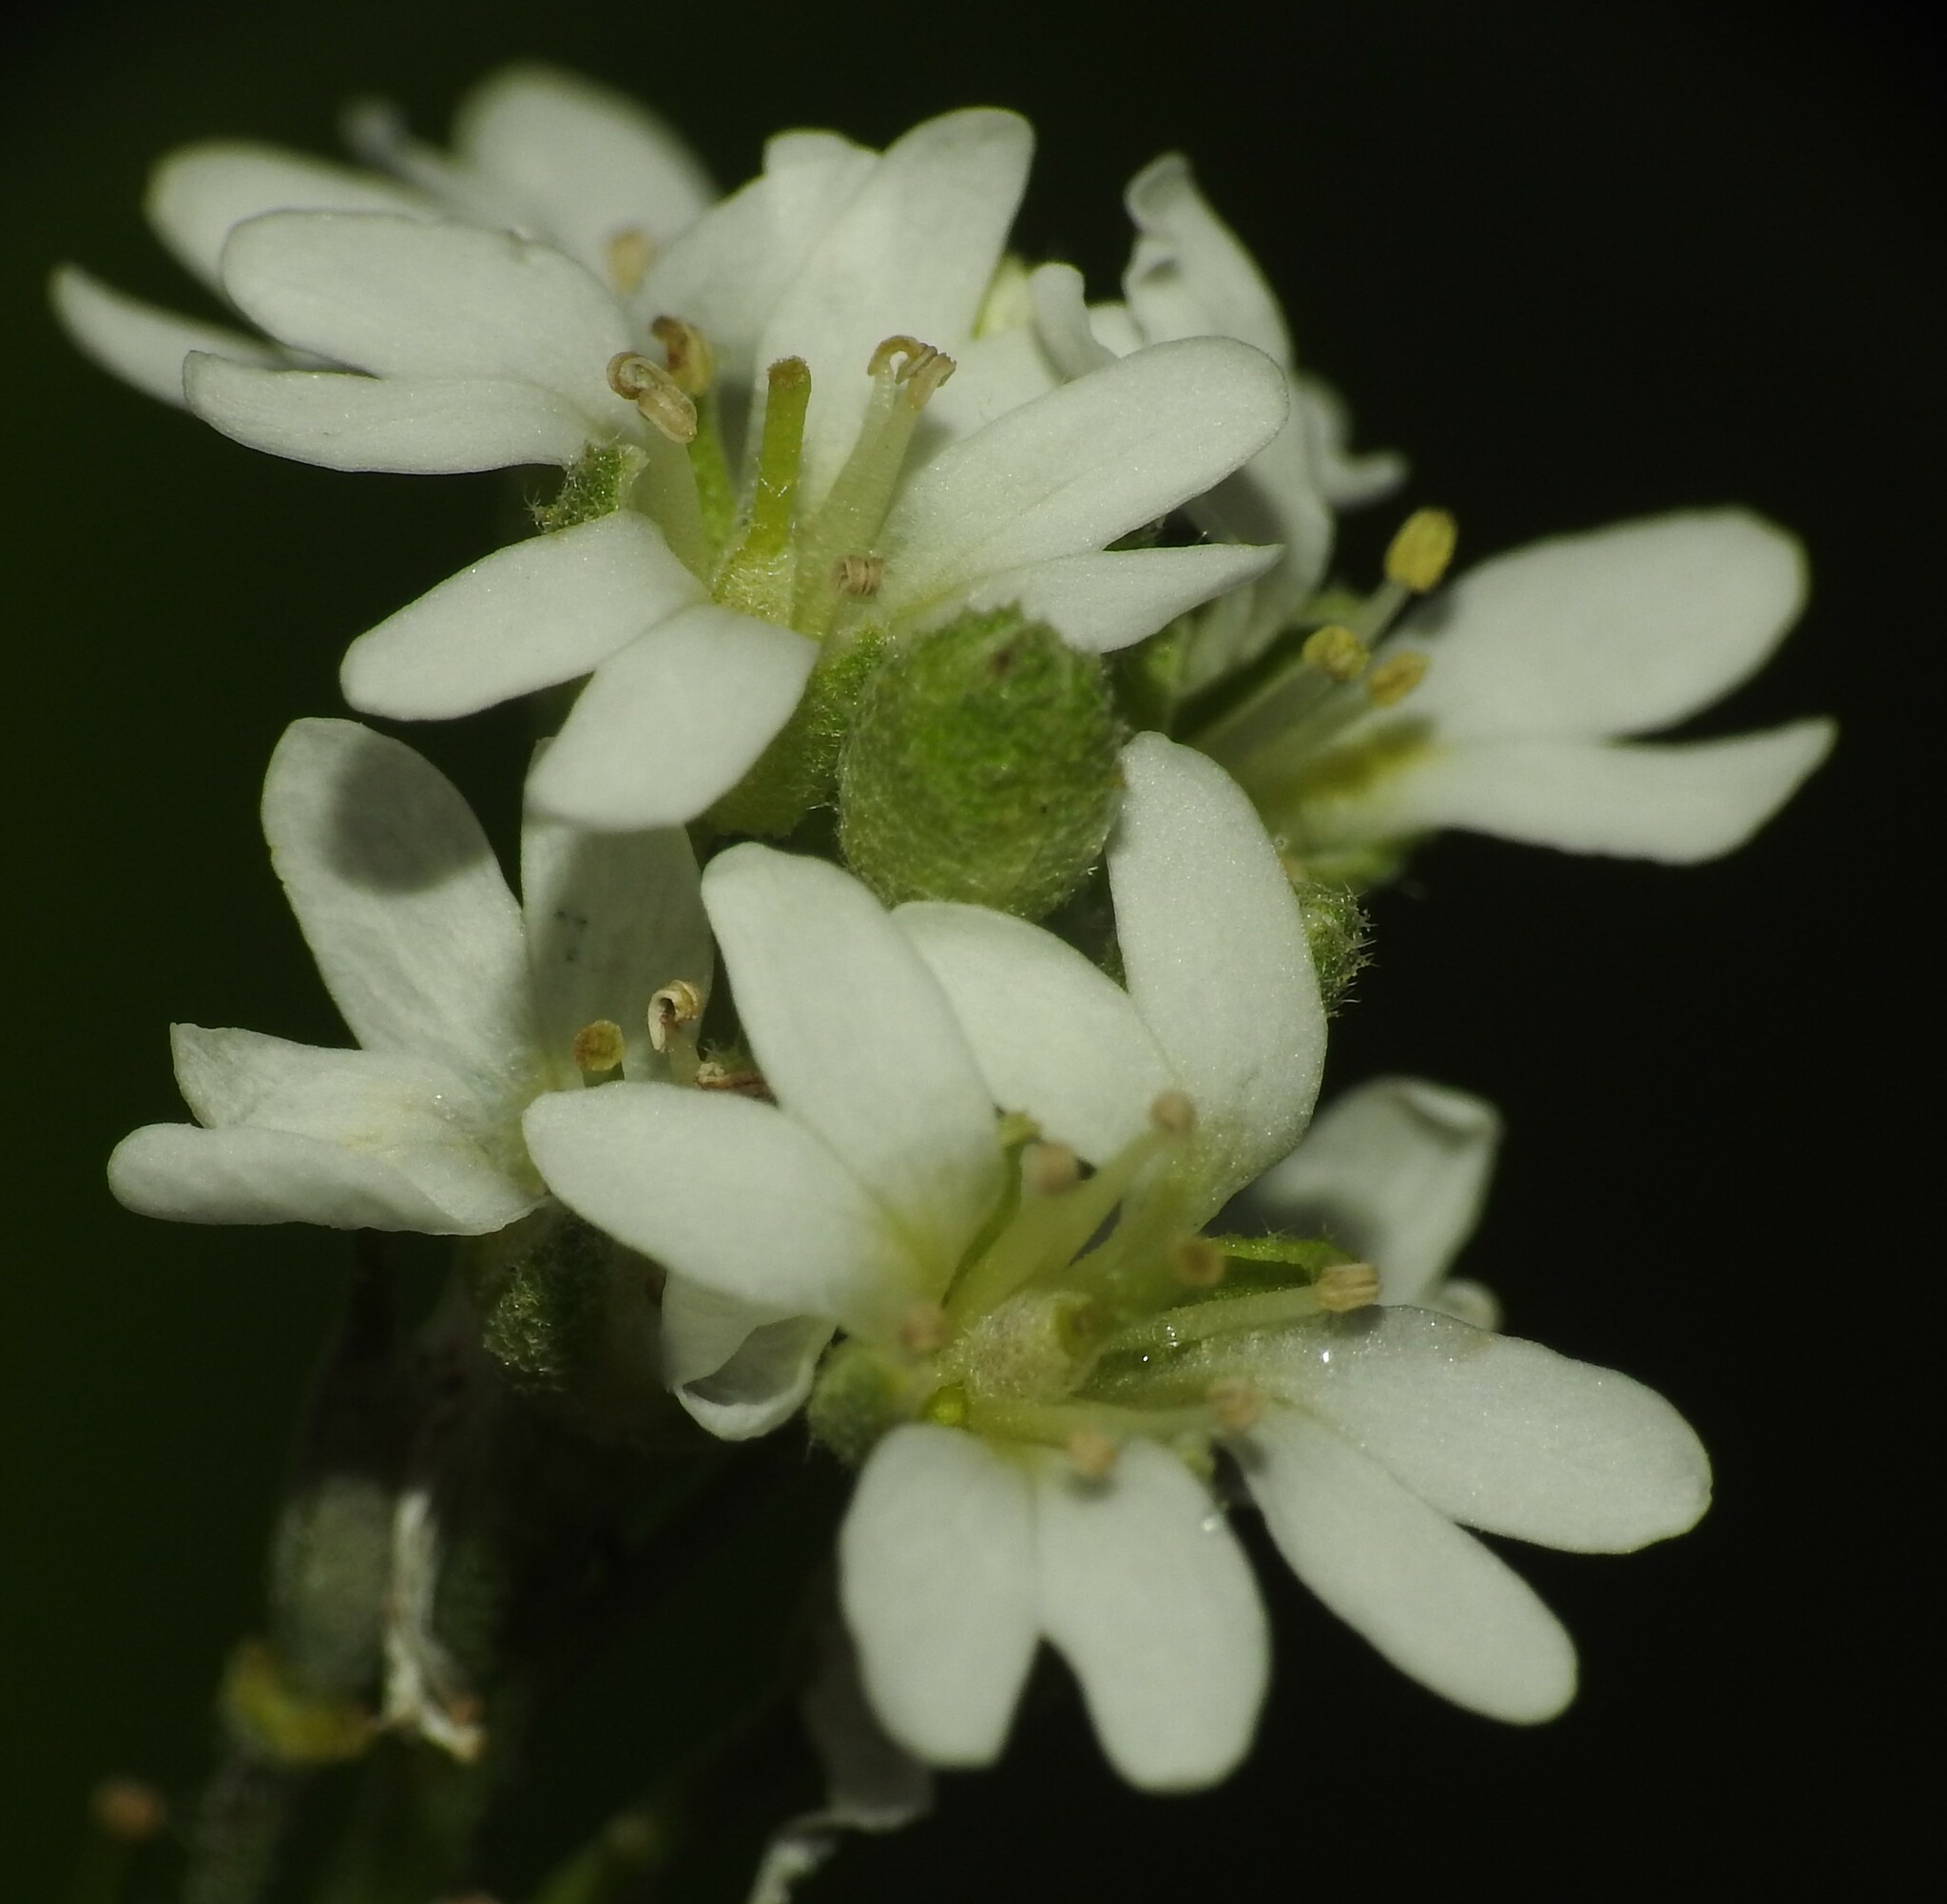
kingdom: Plantae
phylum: Tracheophyta
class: Magnoliopsida
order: Brassicales
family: Brassicaceae
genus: Berteroa
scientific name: Berteroa incana
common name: Hoary alison
